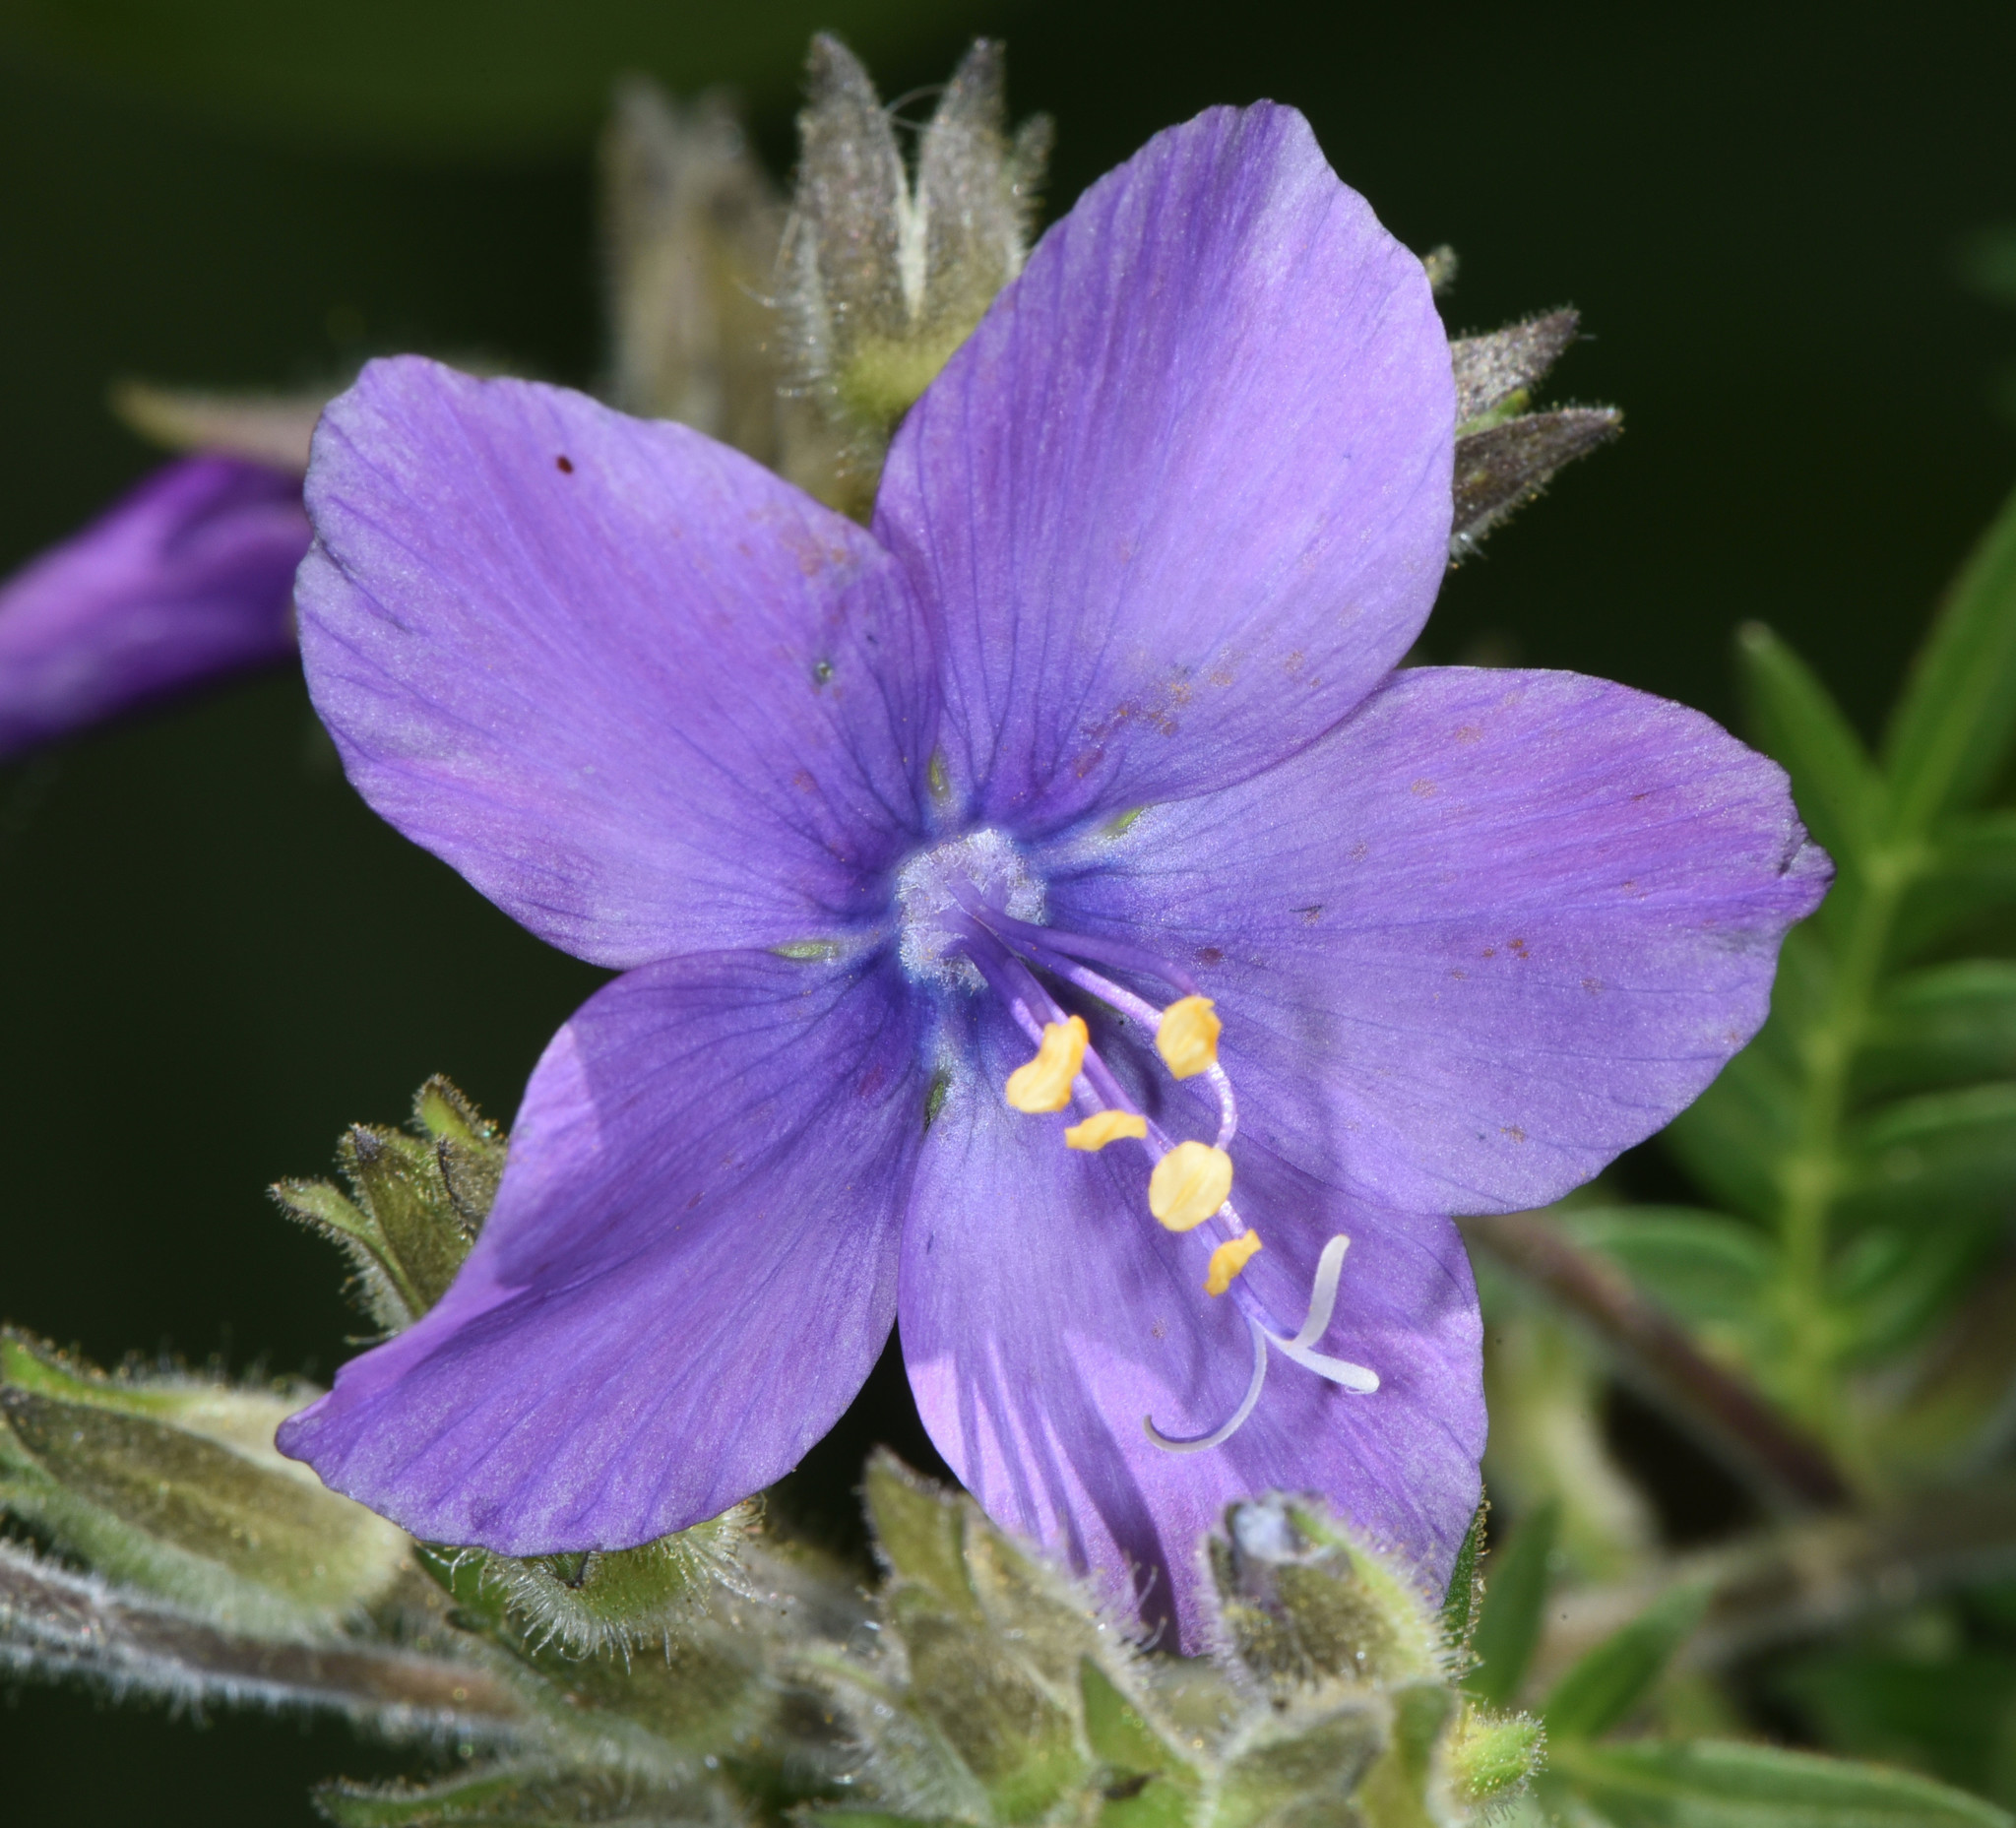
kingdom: Plantae
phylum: Tracheophyta
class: Magnoliopsida
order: Ericales
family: Polemoniaceae
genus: Polemonium
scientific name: Polemonium foliosissimum
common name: Leafy jacob's-ladder
